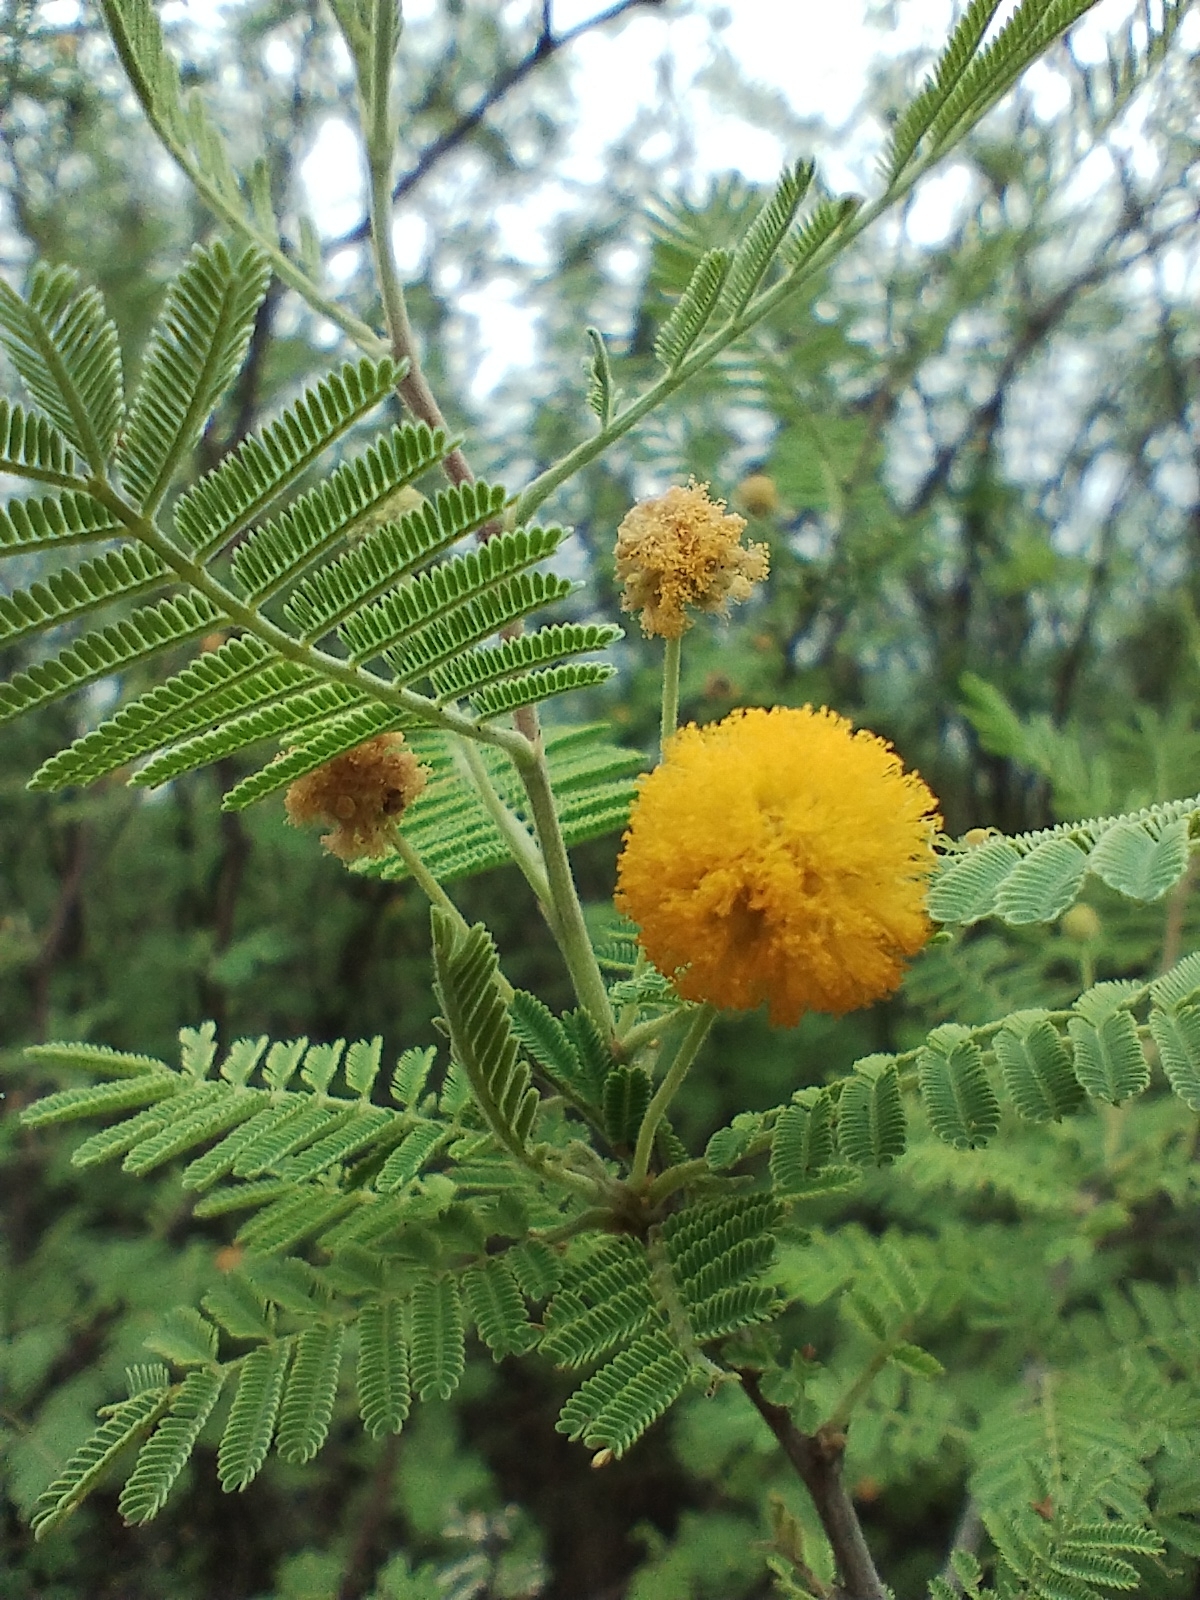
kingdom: Plantae
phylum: Tracheophyta
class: Magnoliopsida
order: Fabales
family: Fabaceae
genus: Vachellia
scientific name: Vachellia aroma
